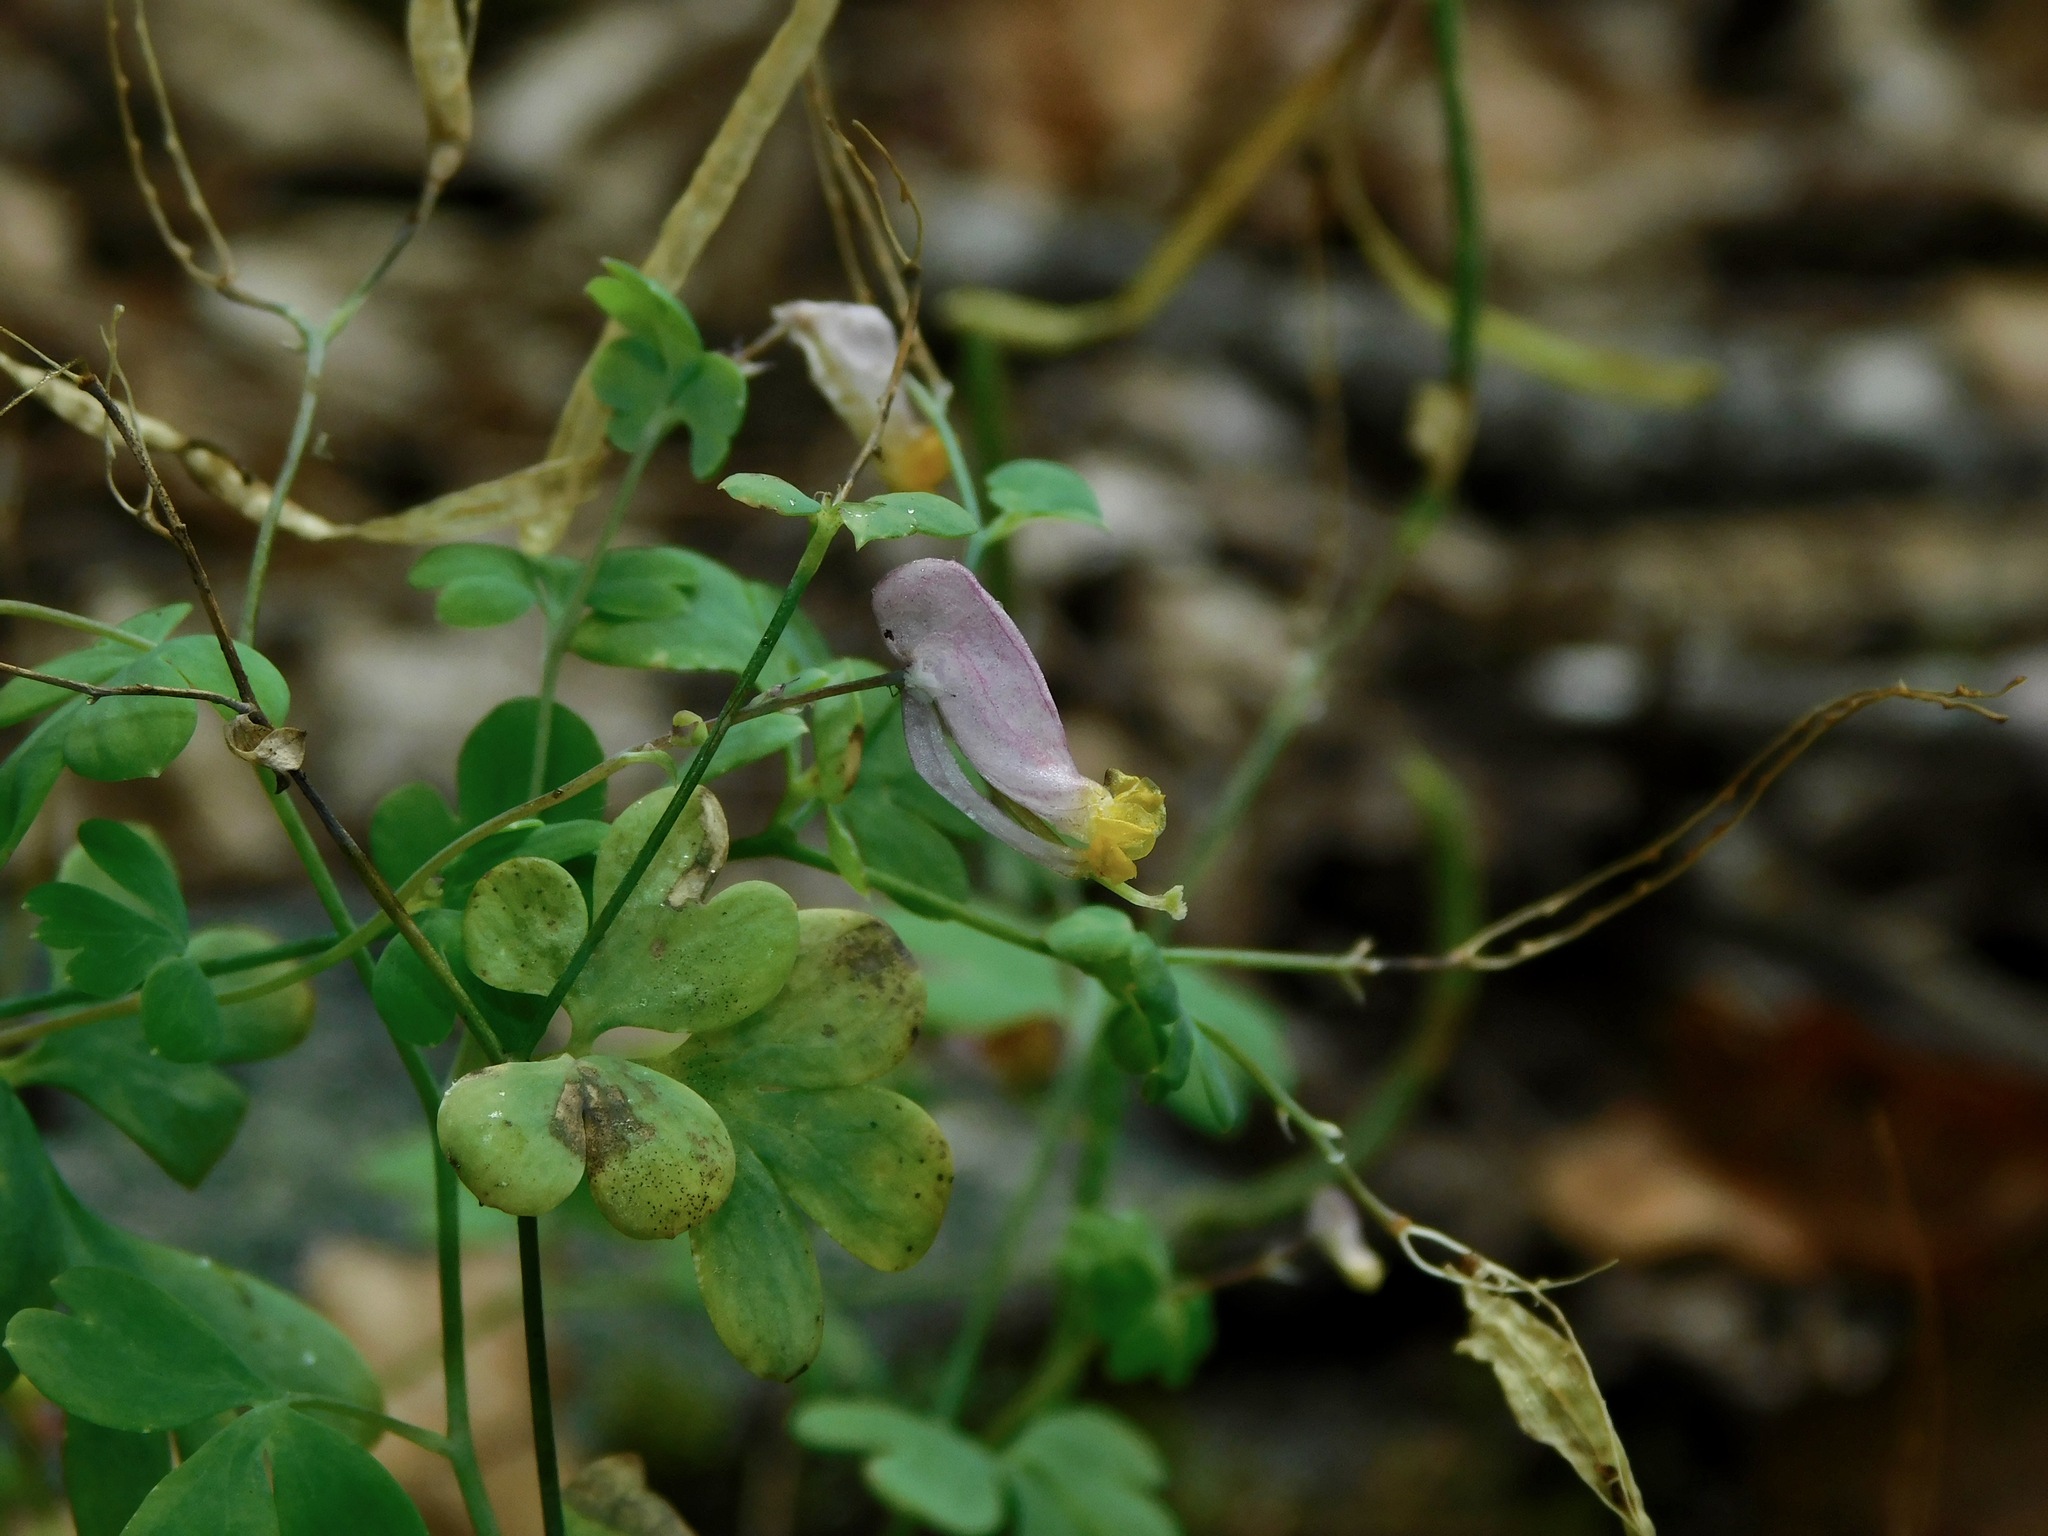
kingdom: Plantae
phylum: Tracheophyta
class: Magnoliopsida
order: Ranunculales
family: Papaveraceae
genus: Capnoides
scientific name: Capnoides sempervirens
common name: Rock harlequin
